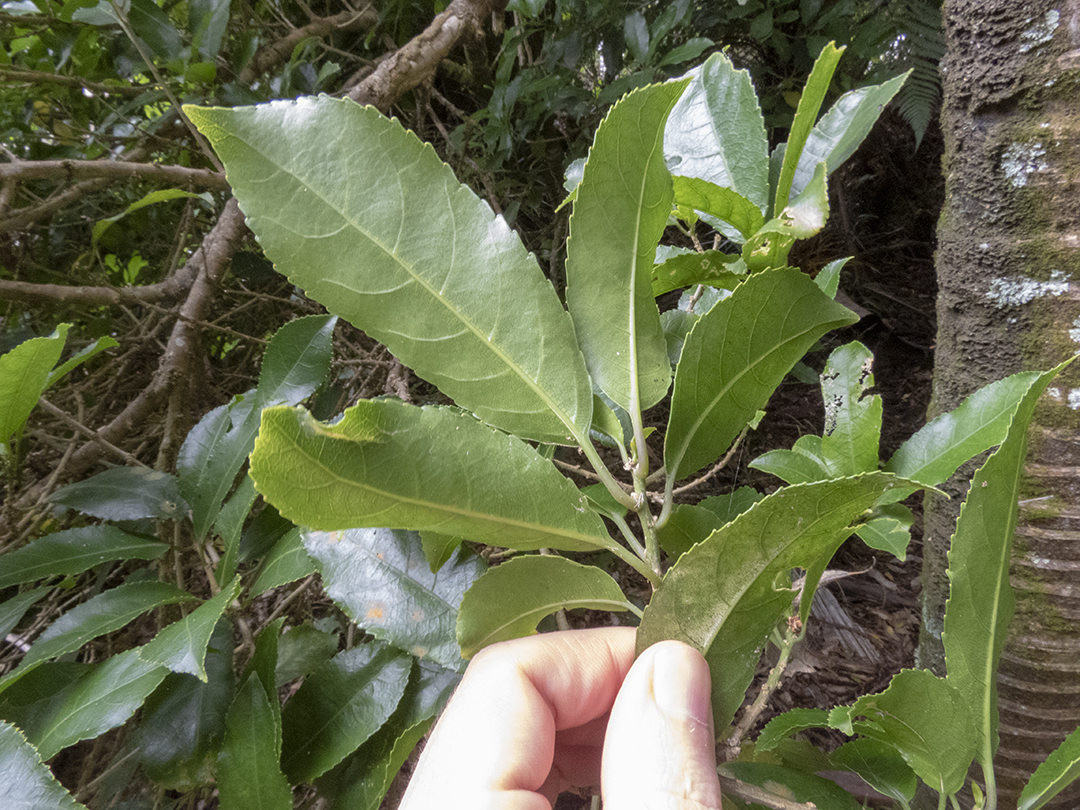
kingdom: Plantae
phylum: Tracheophyta
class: Magnoliopsida
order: Malpighiales
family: Violaceae
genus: Melicytus
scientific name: Melicytus ramiflorus
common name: Mahoe
